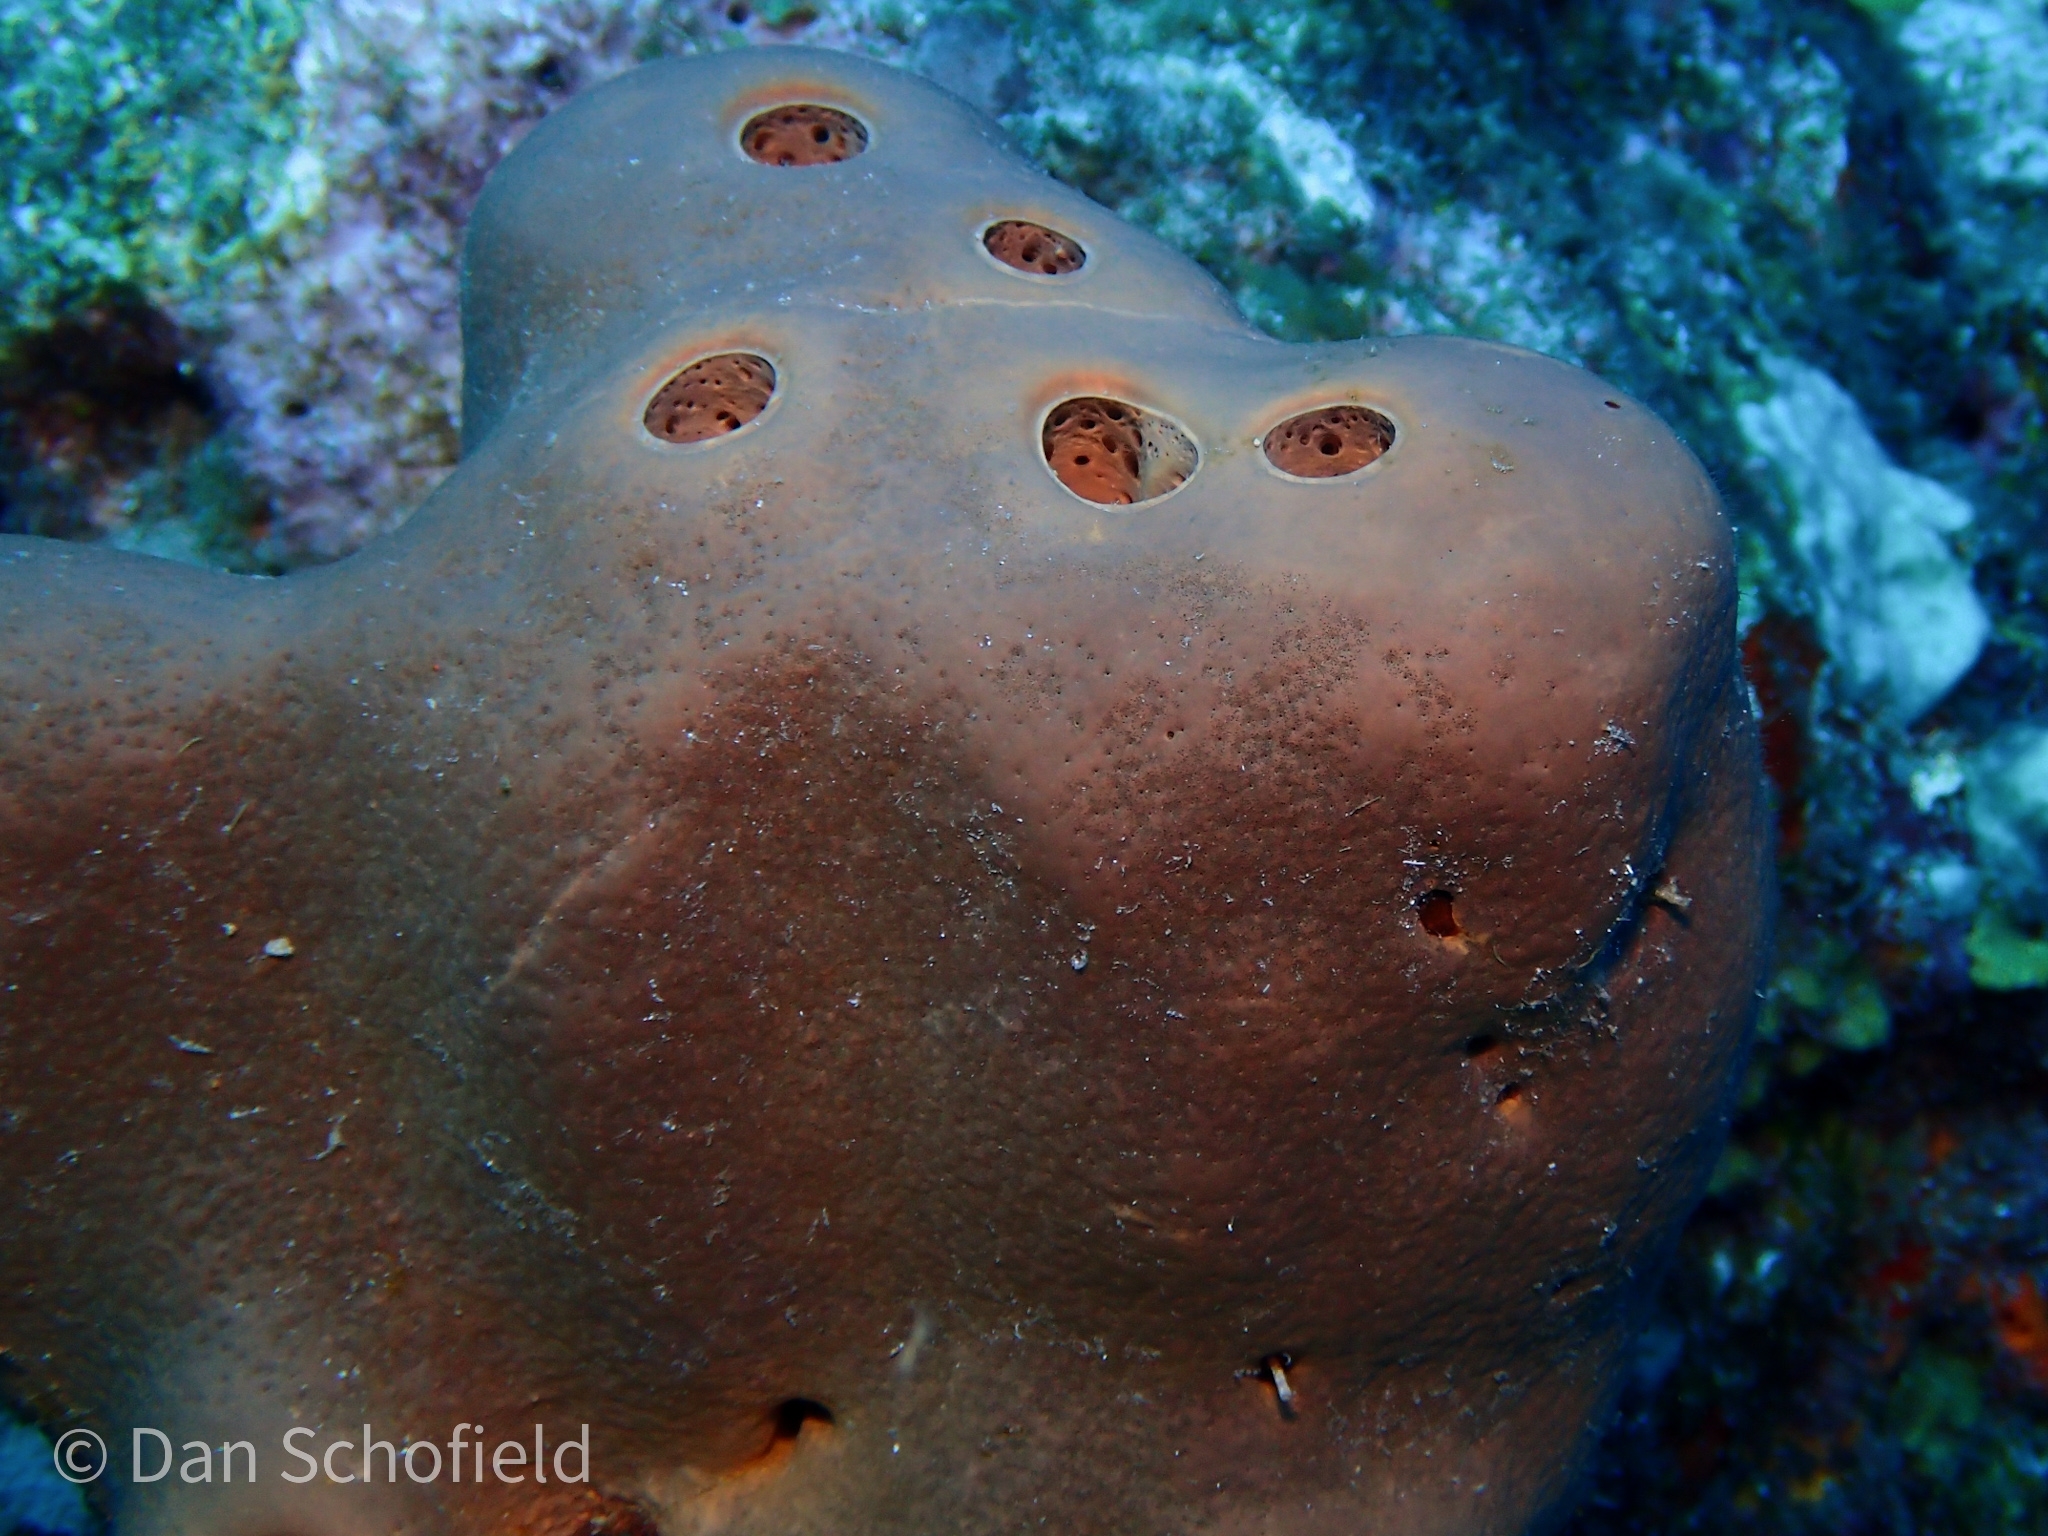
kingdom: Animalia
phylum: Porifera
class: Demospongiae
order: Agelasida
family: Agelasidae
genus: Agelas
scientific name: Agelas conifera
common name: Brown tube sponge
